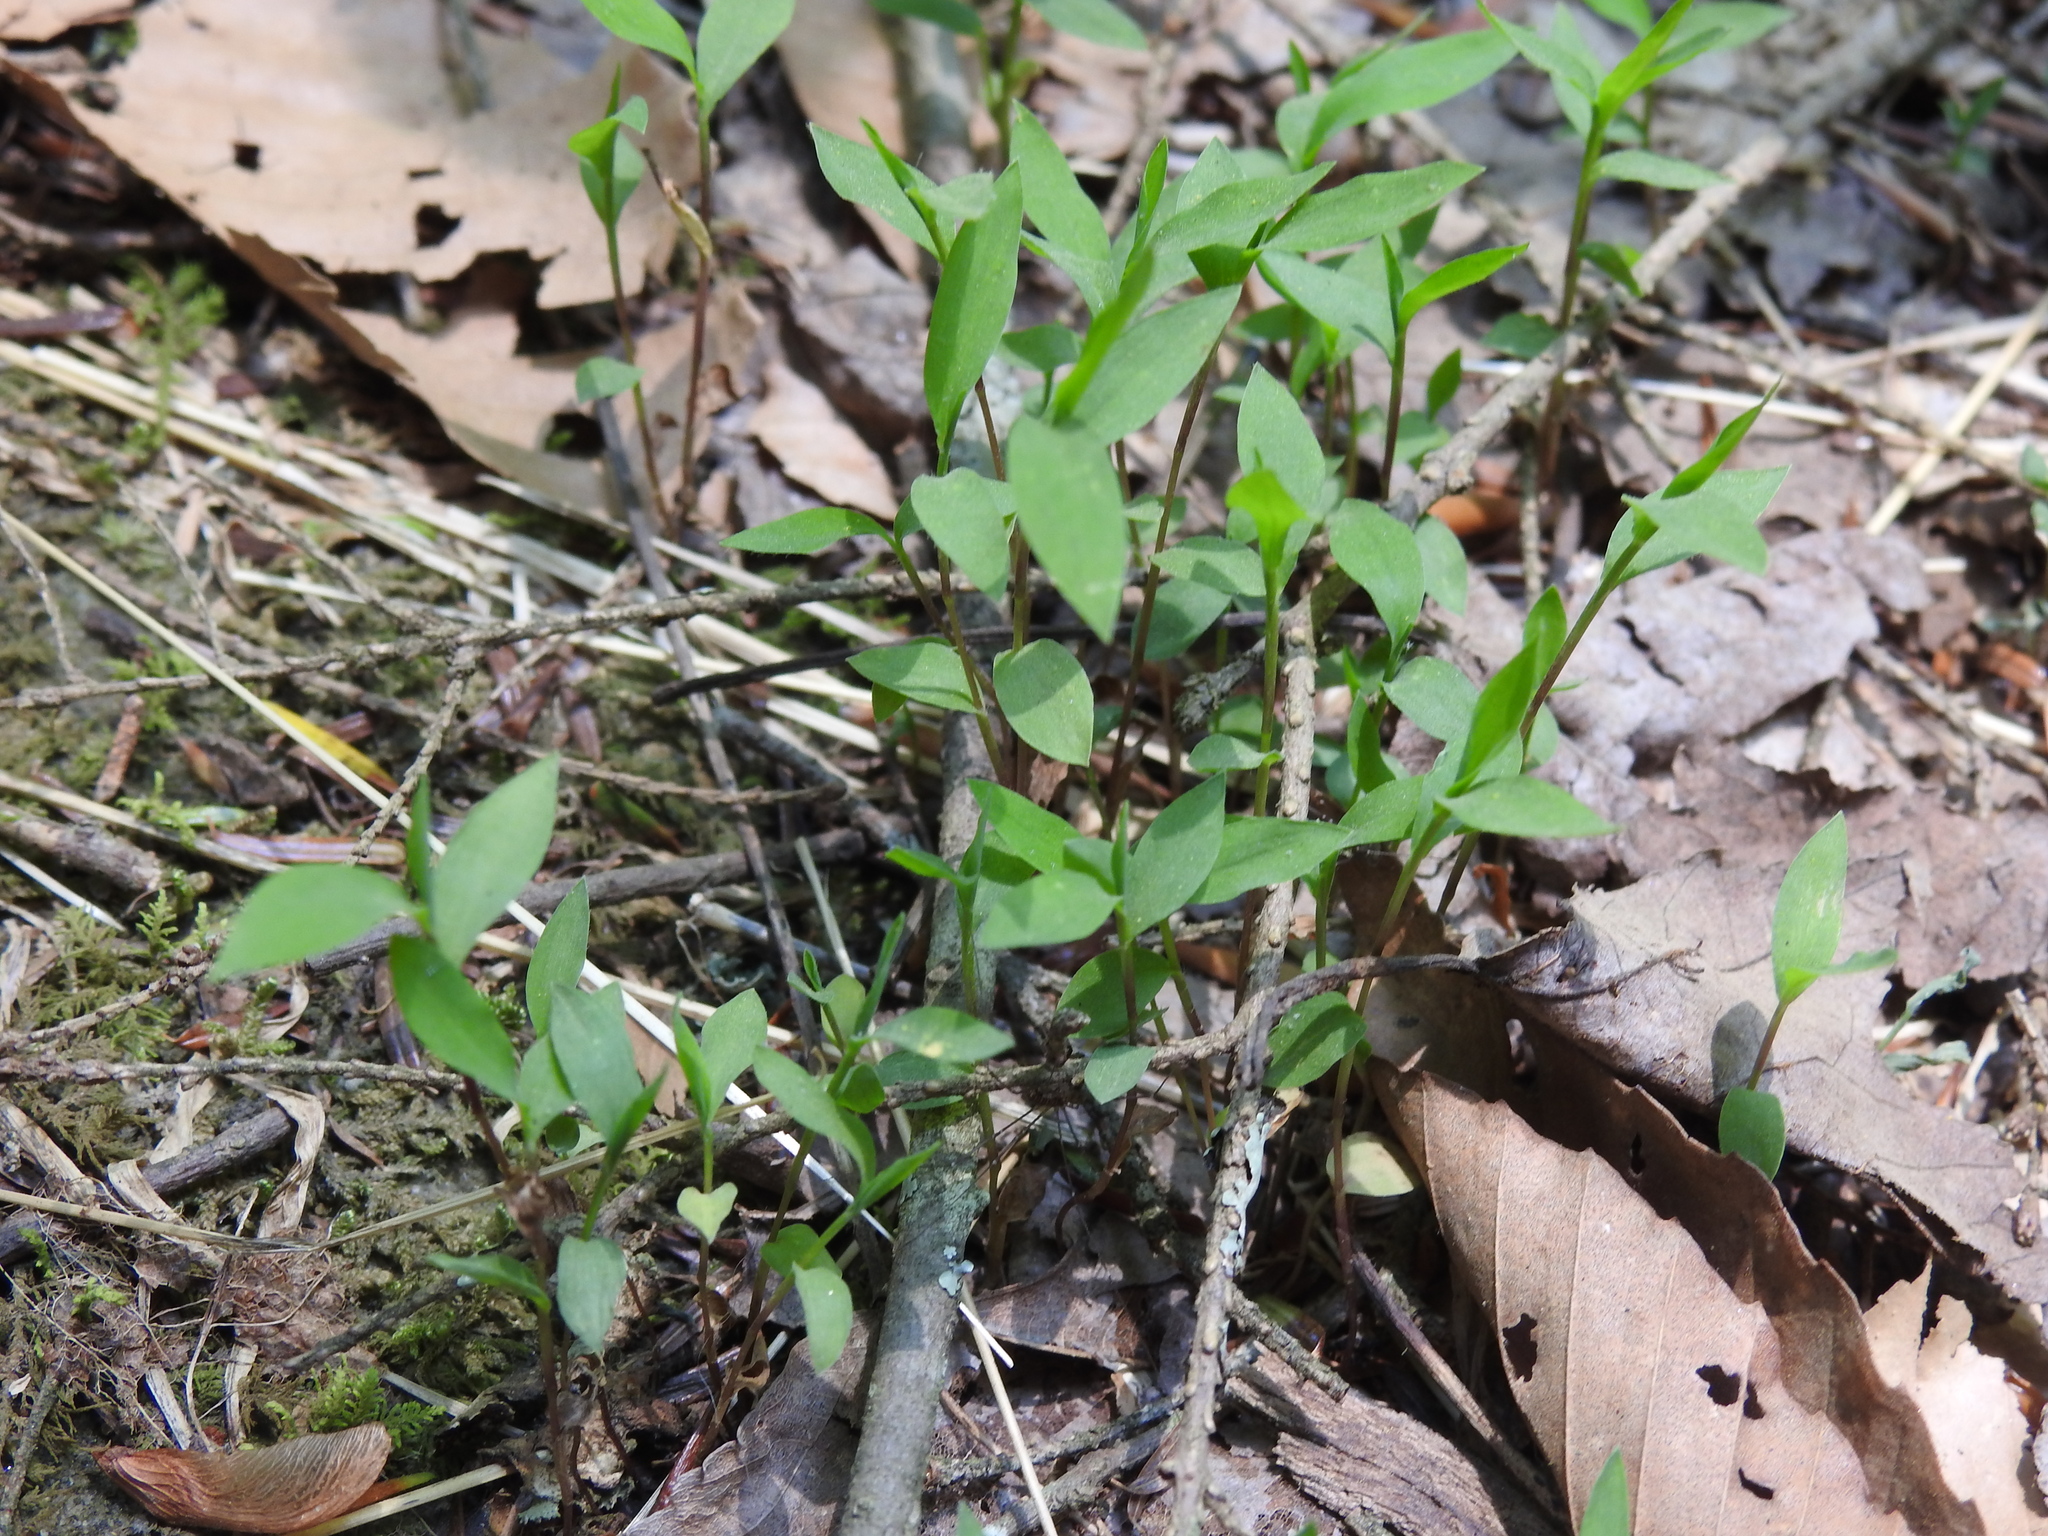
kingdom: Plantae
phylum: Tracheophyta
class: Liliopsida
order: Poales
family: Poaceae
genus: Microstegium
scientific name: Microstegium vimineum
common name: Japanese stiltgrass
